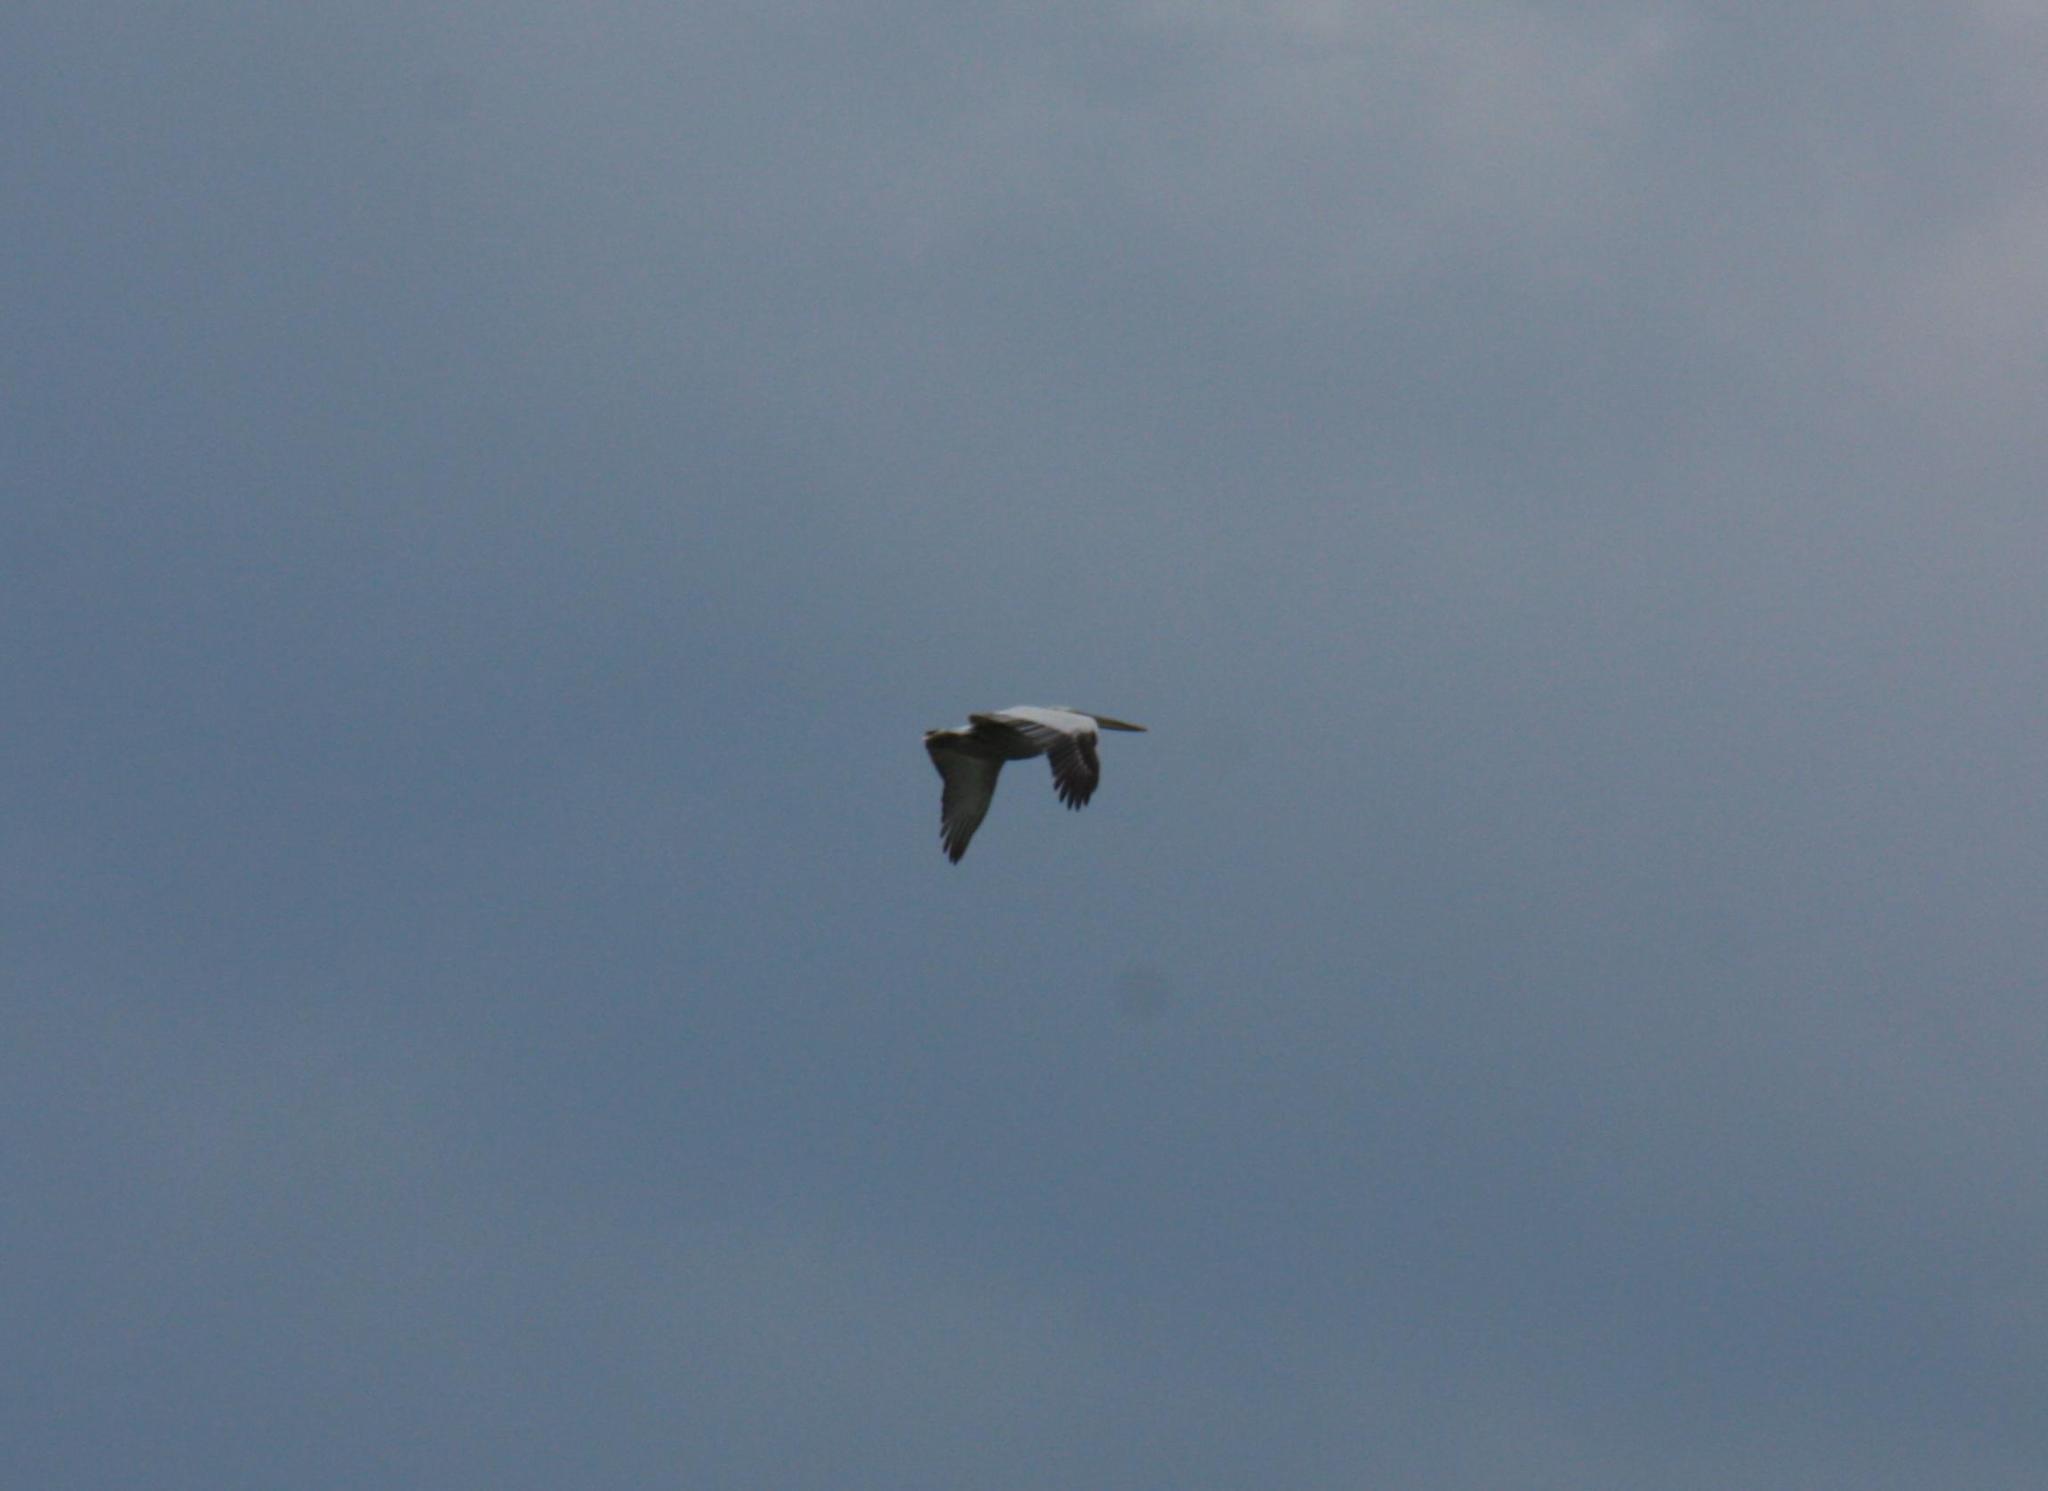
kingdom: Animalia
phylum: Chordata
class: Aves
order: Pelecaniformes
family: Pelecanidae
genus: Pelecanus
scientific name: Pelecanus crispus
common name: Dalmatian pelican
